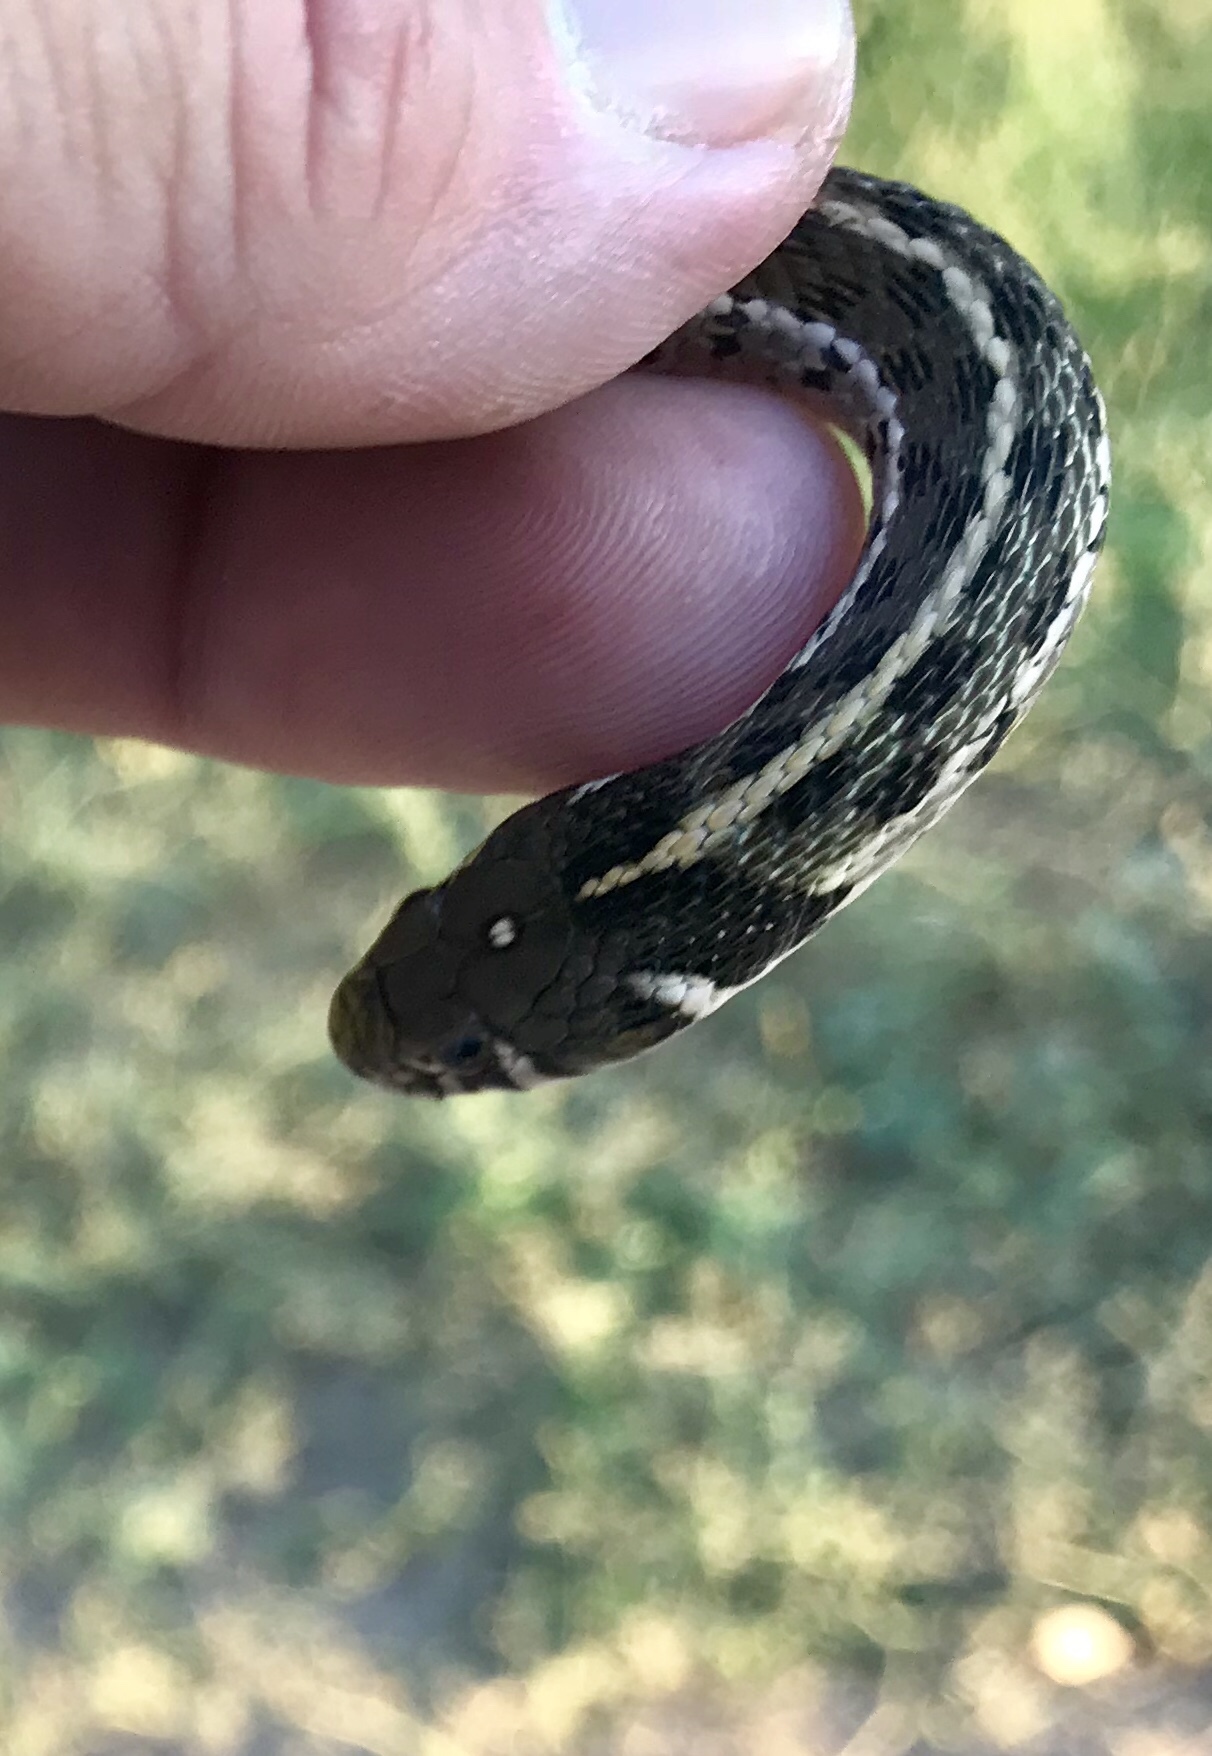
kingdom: Animalia
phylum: Chordata
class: Squamata
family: Colubridae
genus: Thamnophis
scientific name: Thamnophis marcianus
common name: Checkered garter snake
